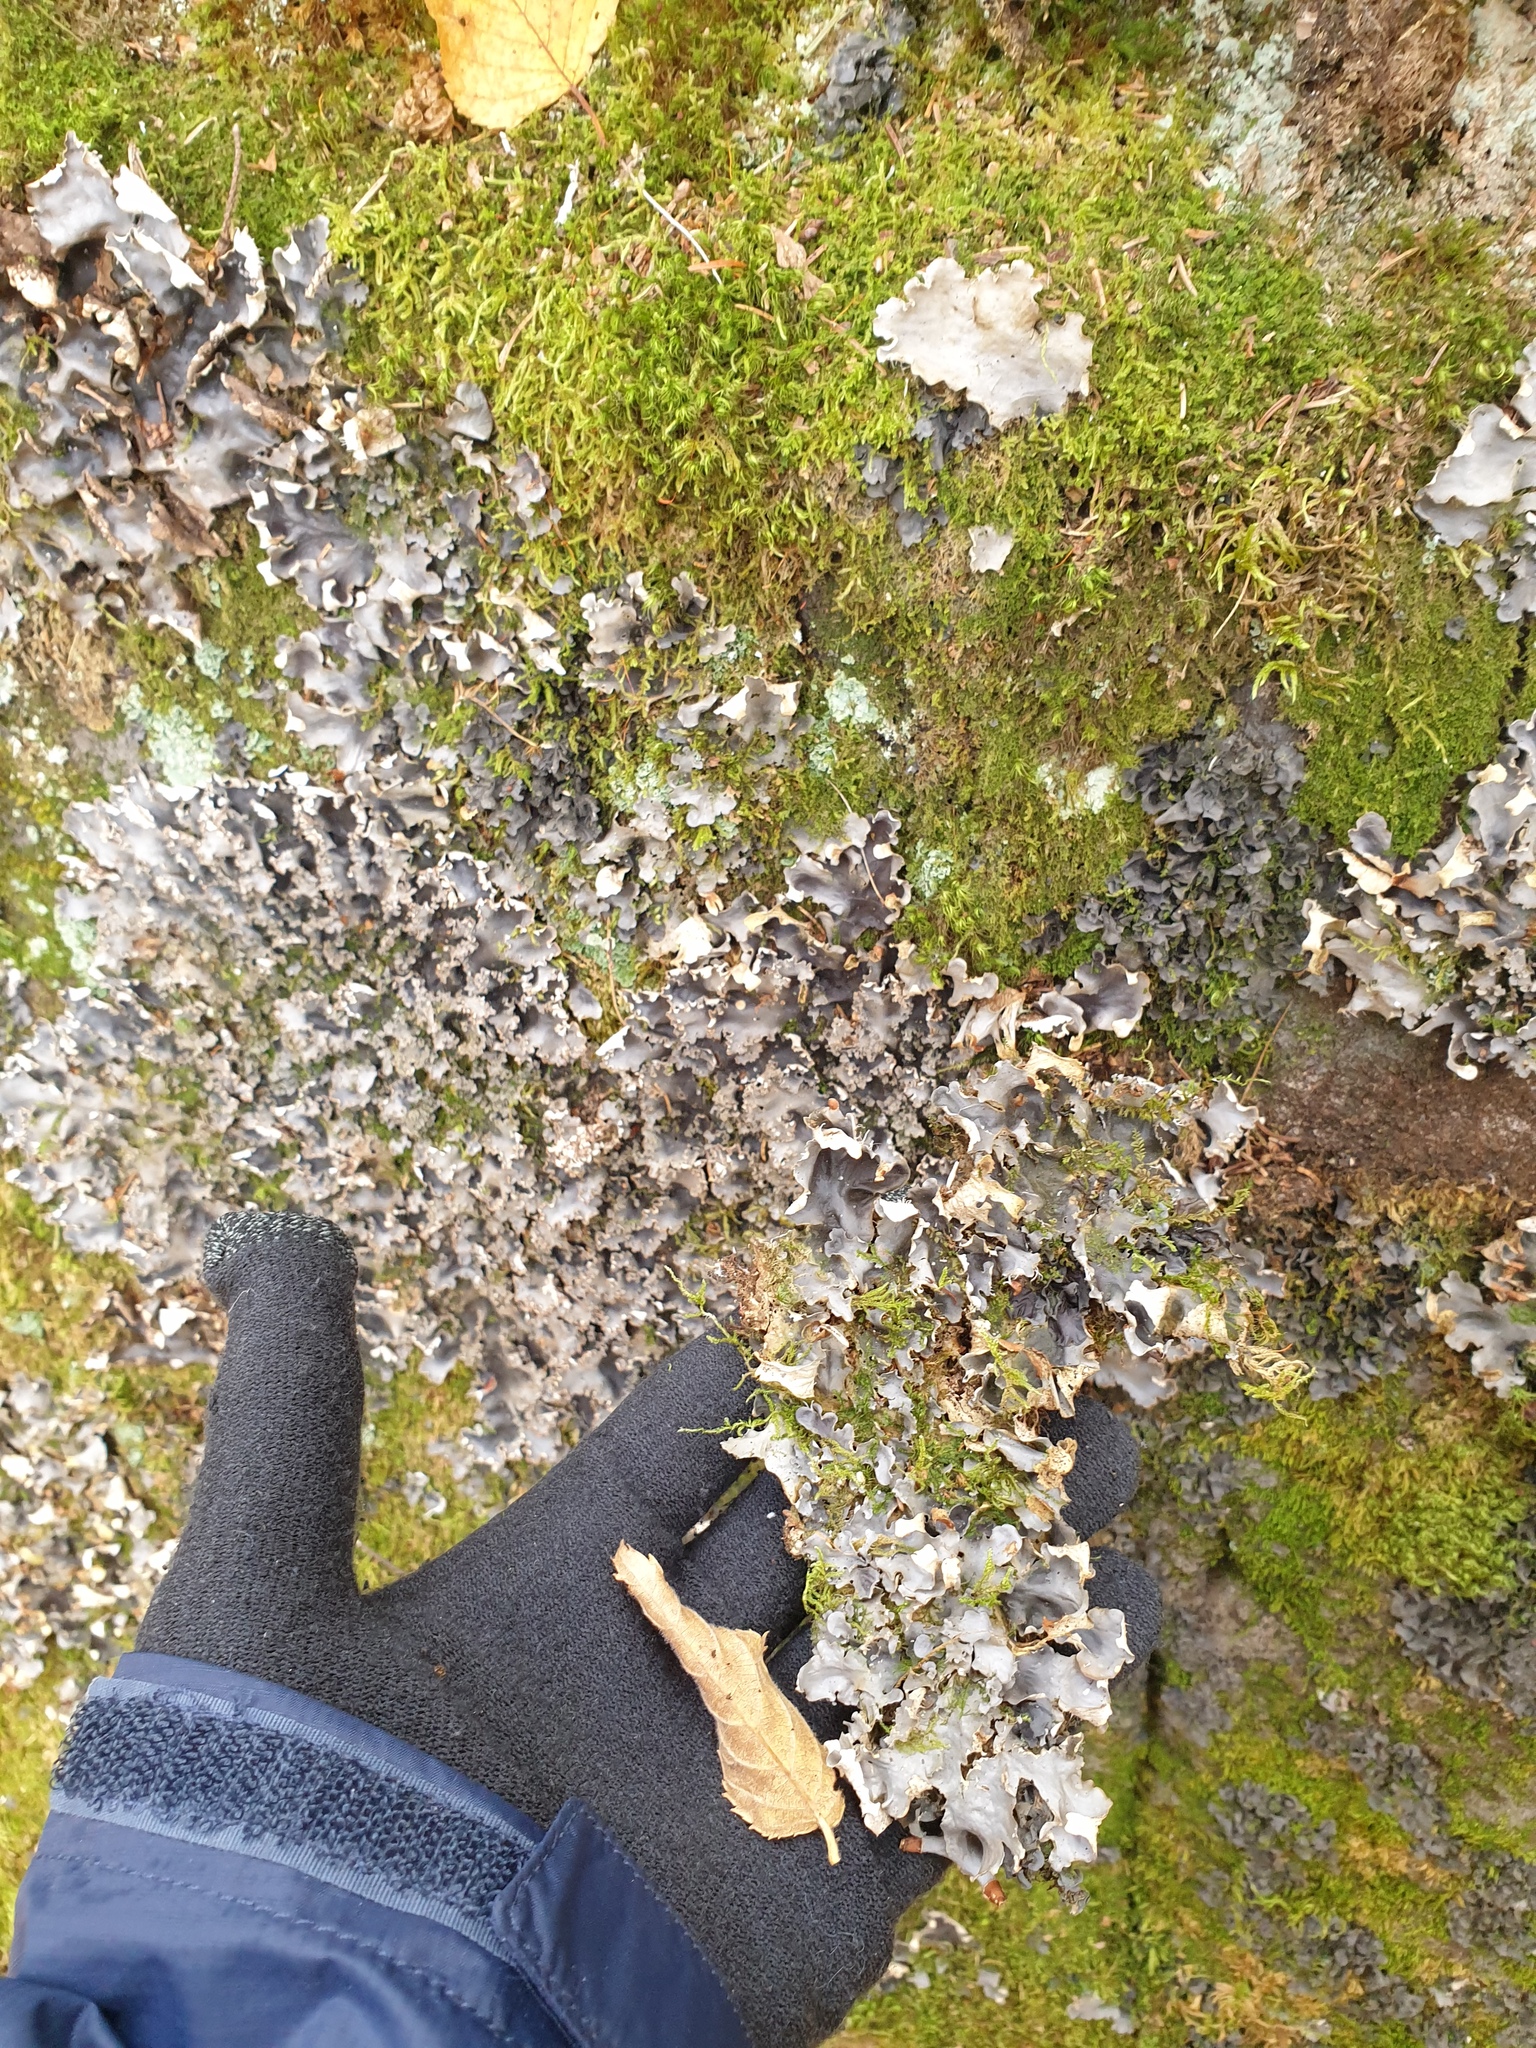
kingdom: Fungi
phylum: Ascomycota
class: Lecanoromycetes
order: Peltigerales
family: Peltigeraceae
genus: Peltigera
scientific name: Peltigera neopolydactyla
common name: Carpet pelt
